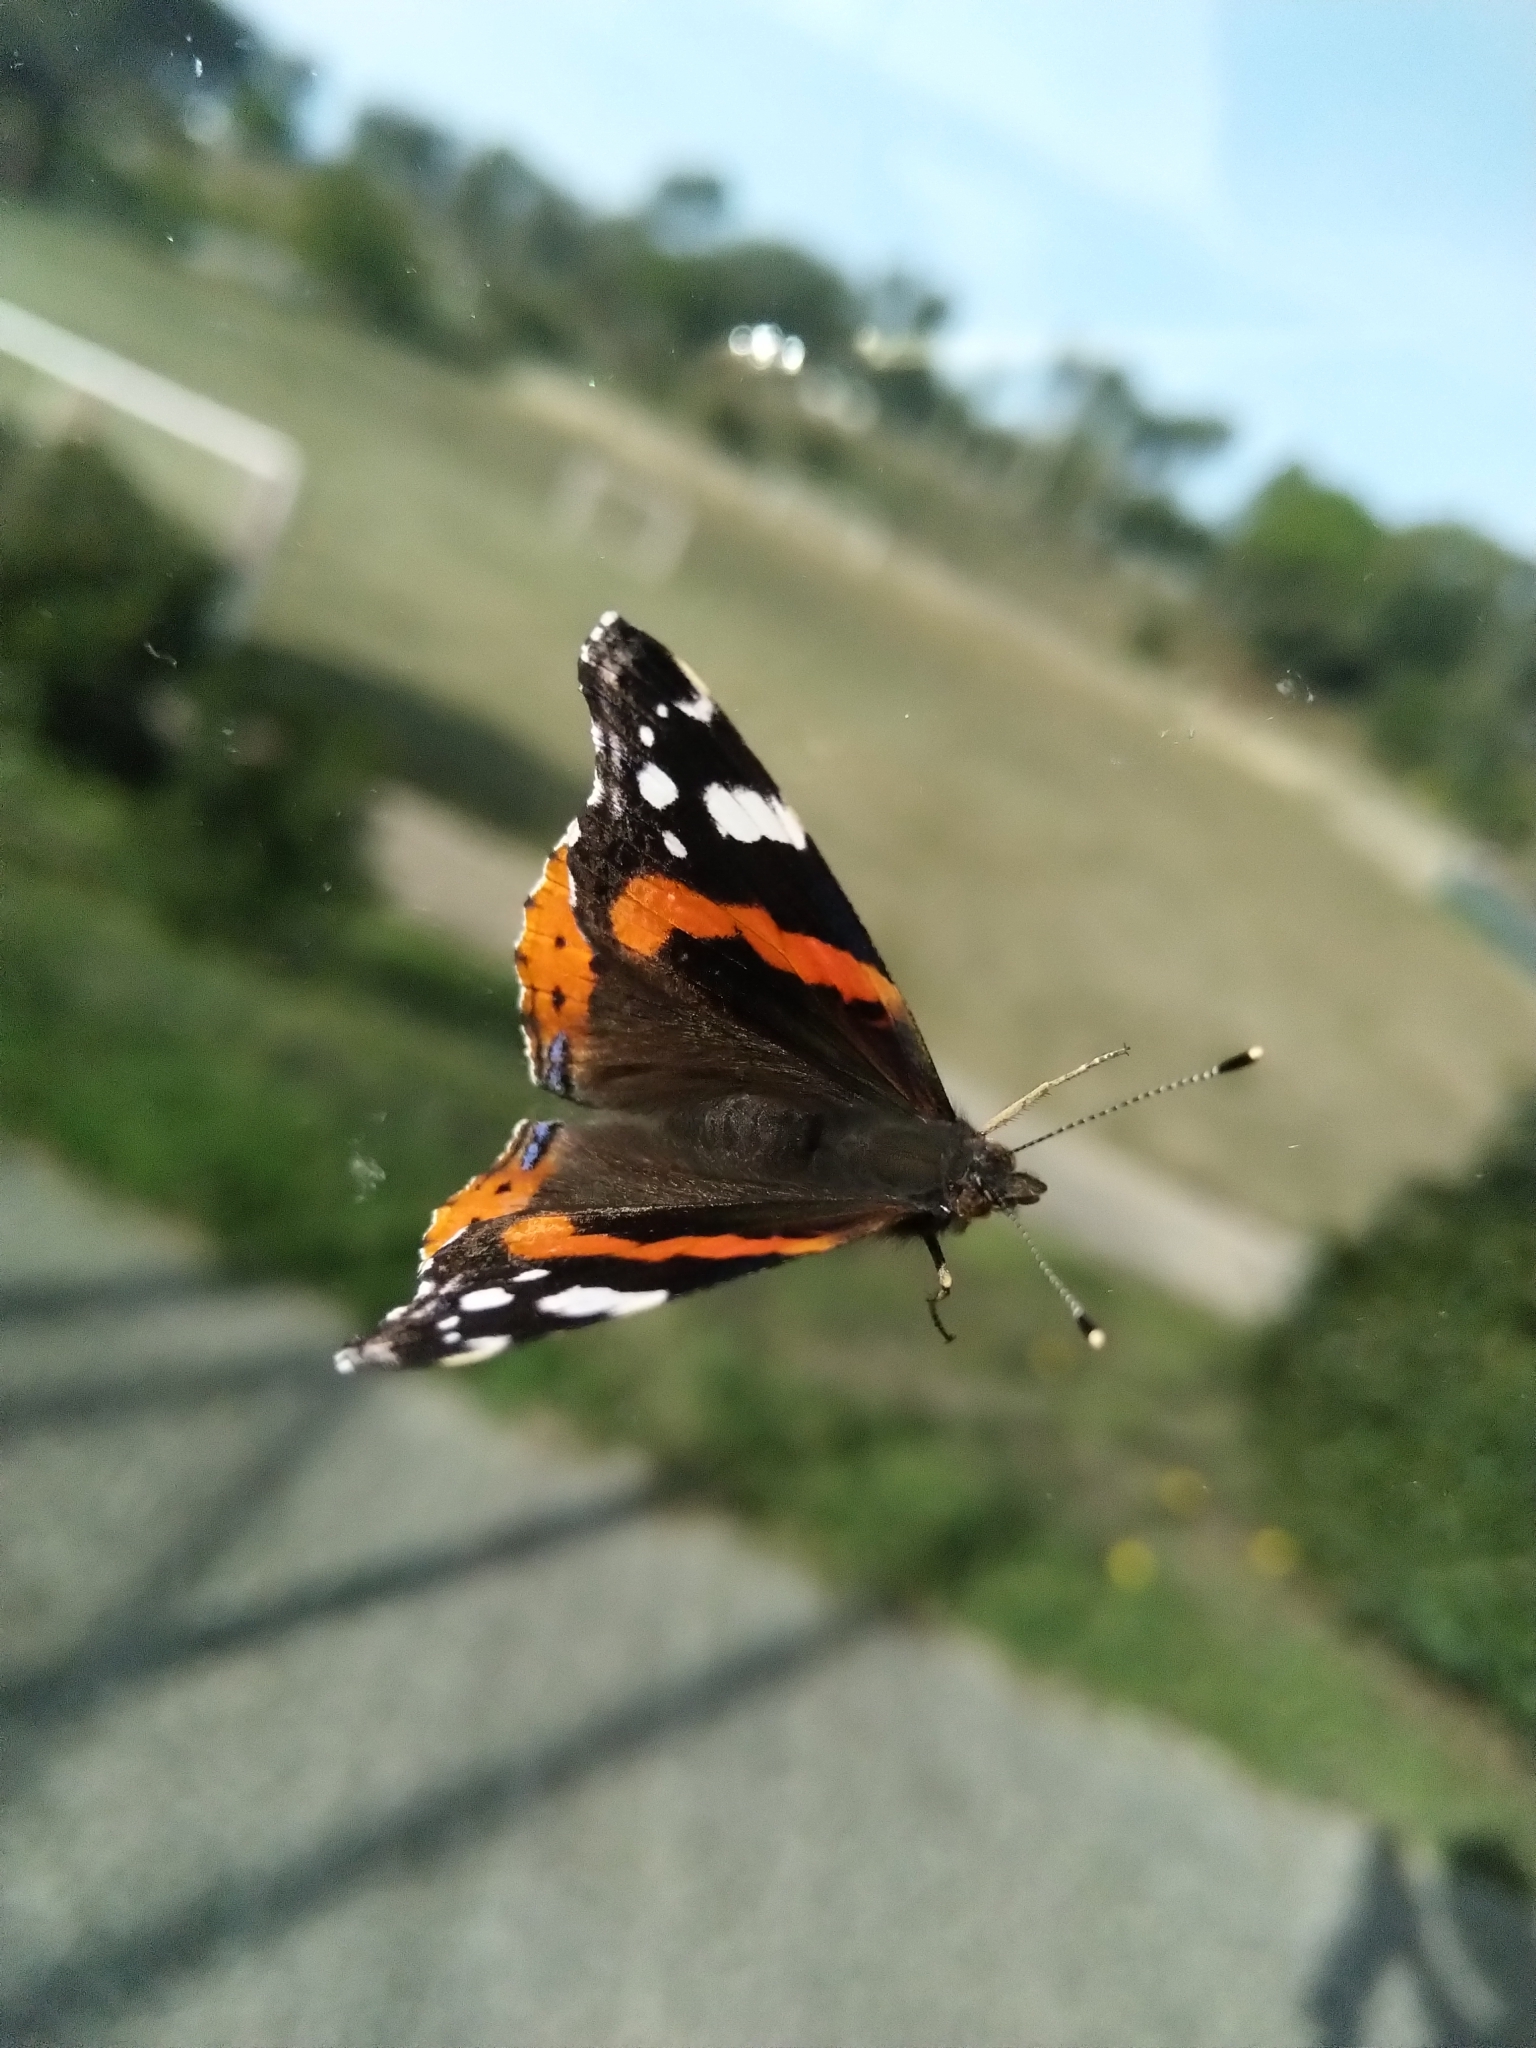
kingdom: Animalia
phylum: Arthropoda
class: Insecta
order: Lepidoptera
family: Nymphalidae
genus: Vanessa
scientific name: Vanessa atalanta
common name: Red admiral
